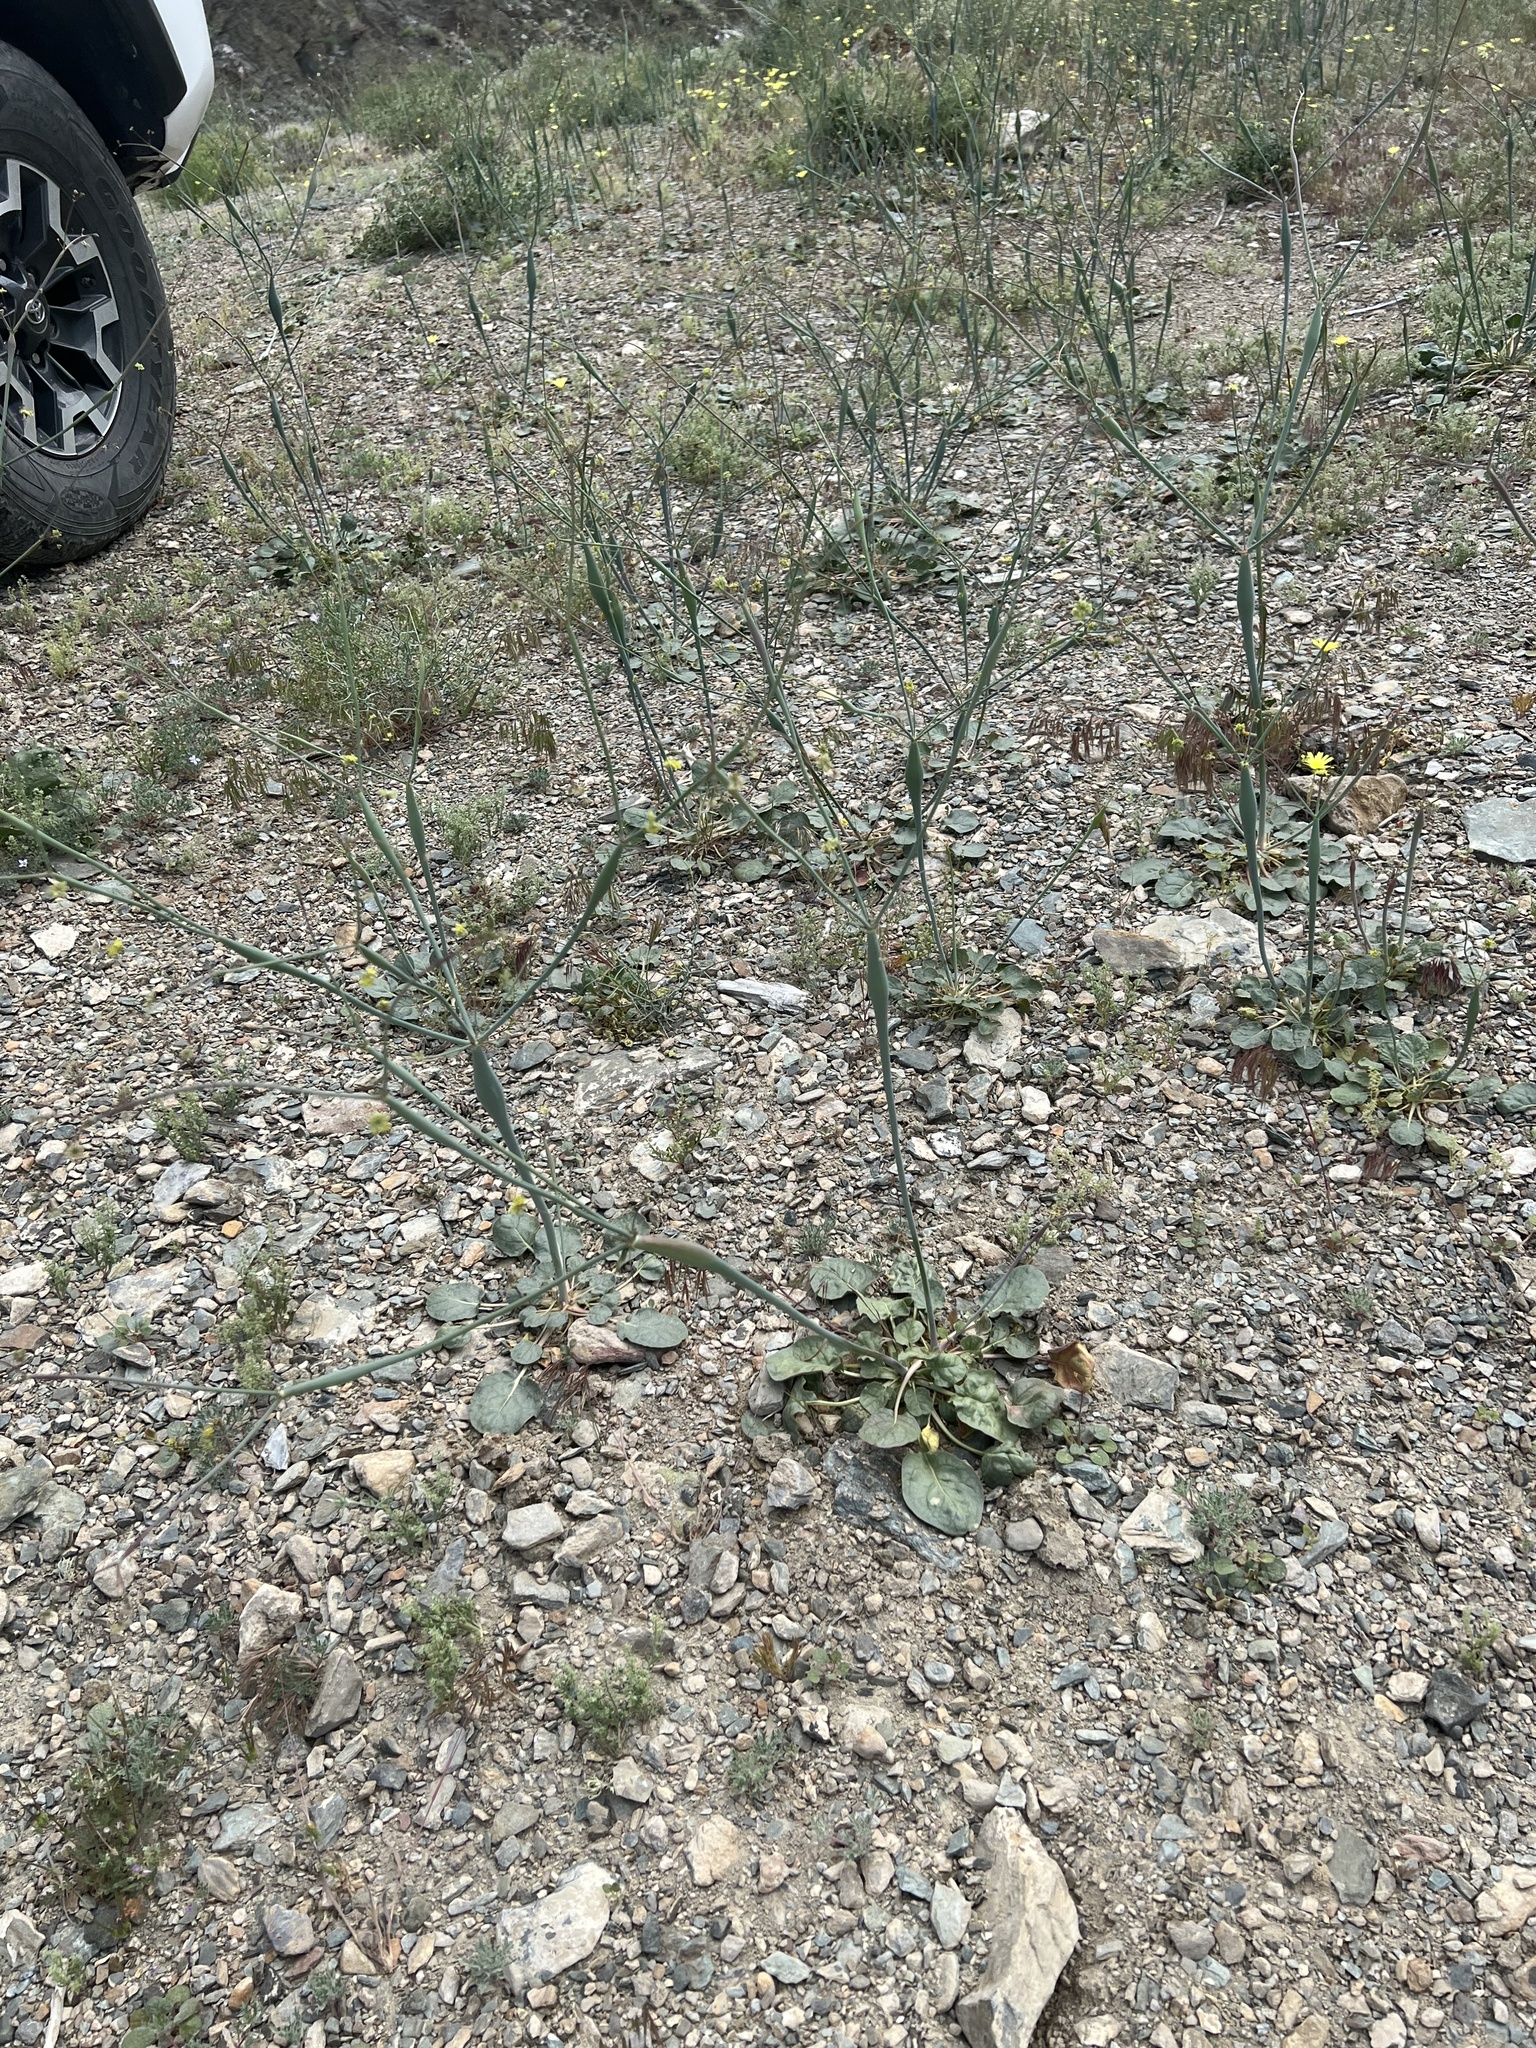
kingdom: Plantae
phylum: Tracheophyta
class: Magnoliopsida
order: Caryophyllales
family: Polygonaceae
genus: Eriogonum
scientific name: Eriogonum inflatum
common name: Desert trumpet
